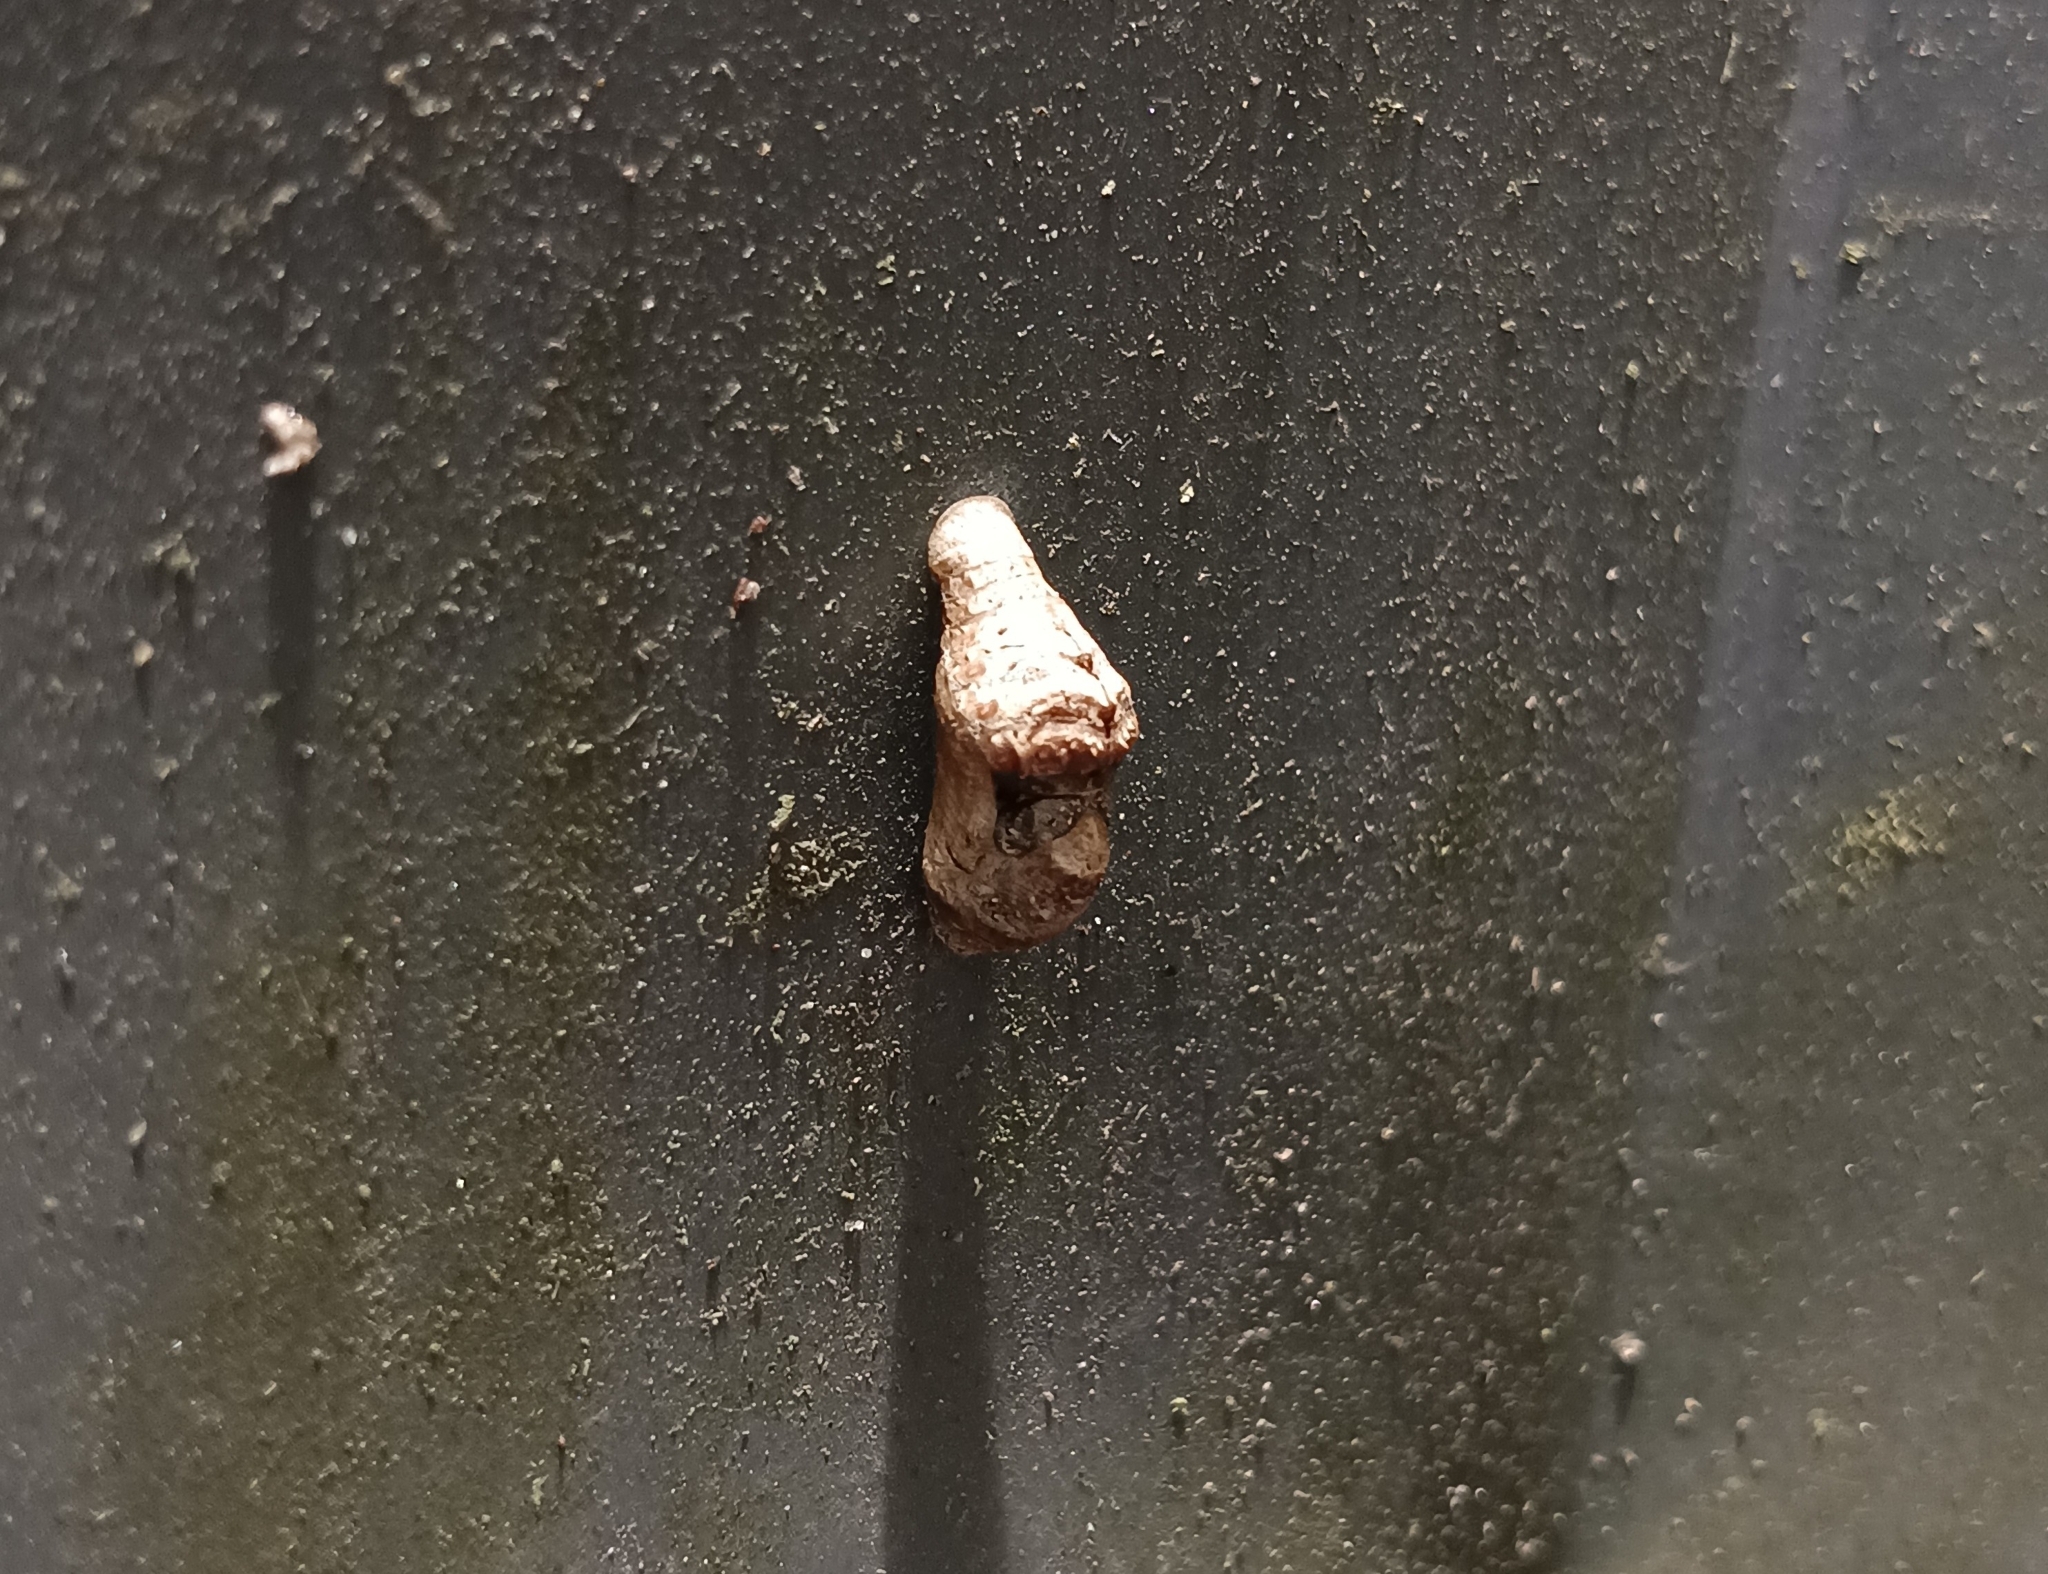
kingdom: Animalia
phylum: Arthropoda
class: Insecta
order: Lepidoptera
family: Lycaenidae
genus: Tajuria
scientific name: Tajuria cippus
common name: Peacock royal
